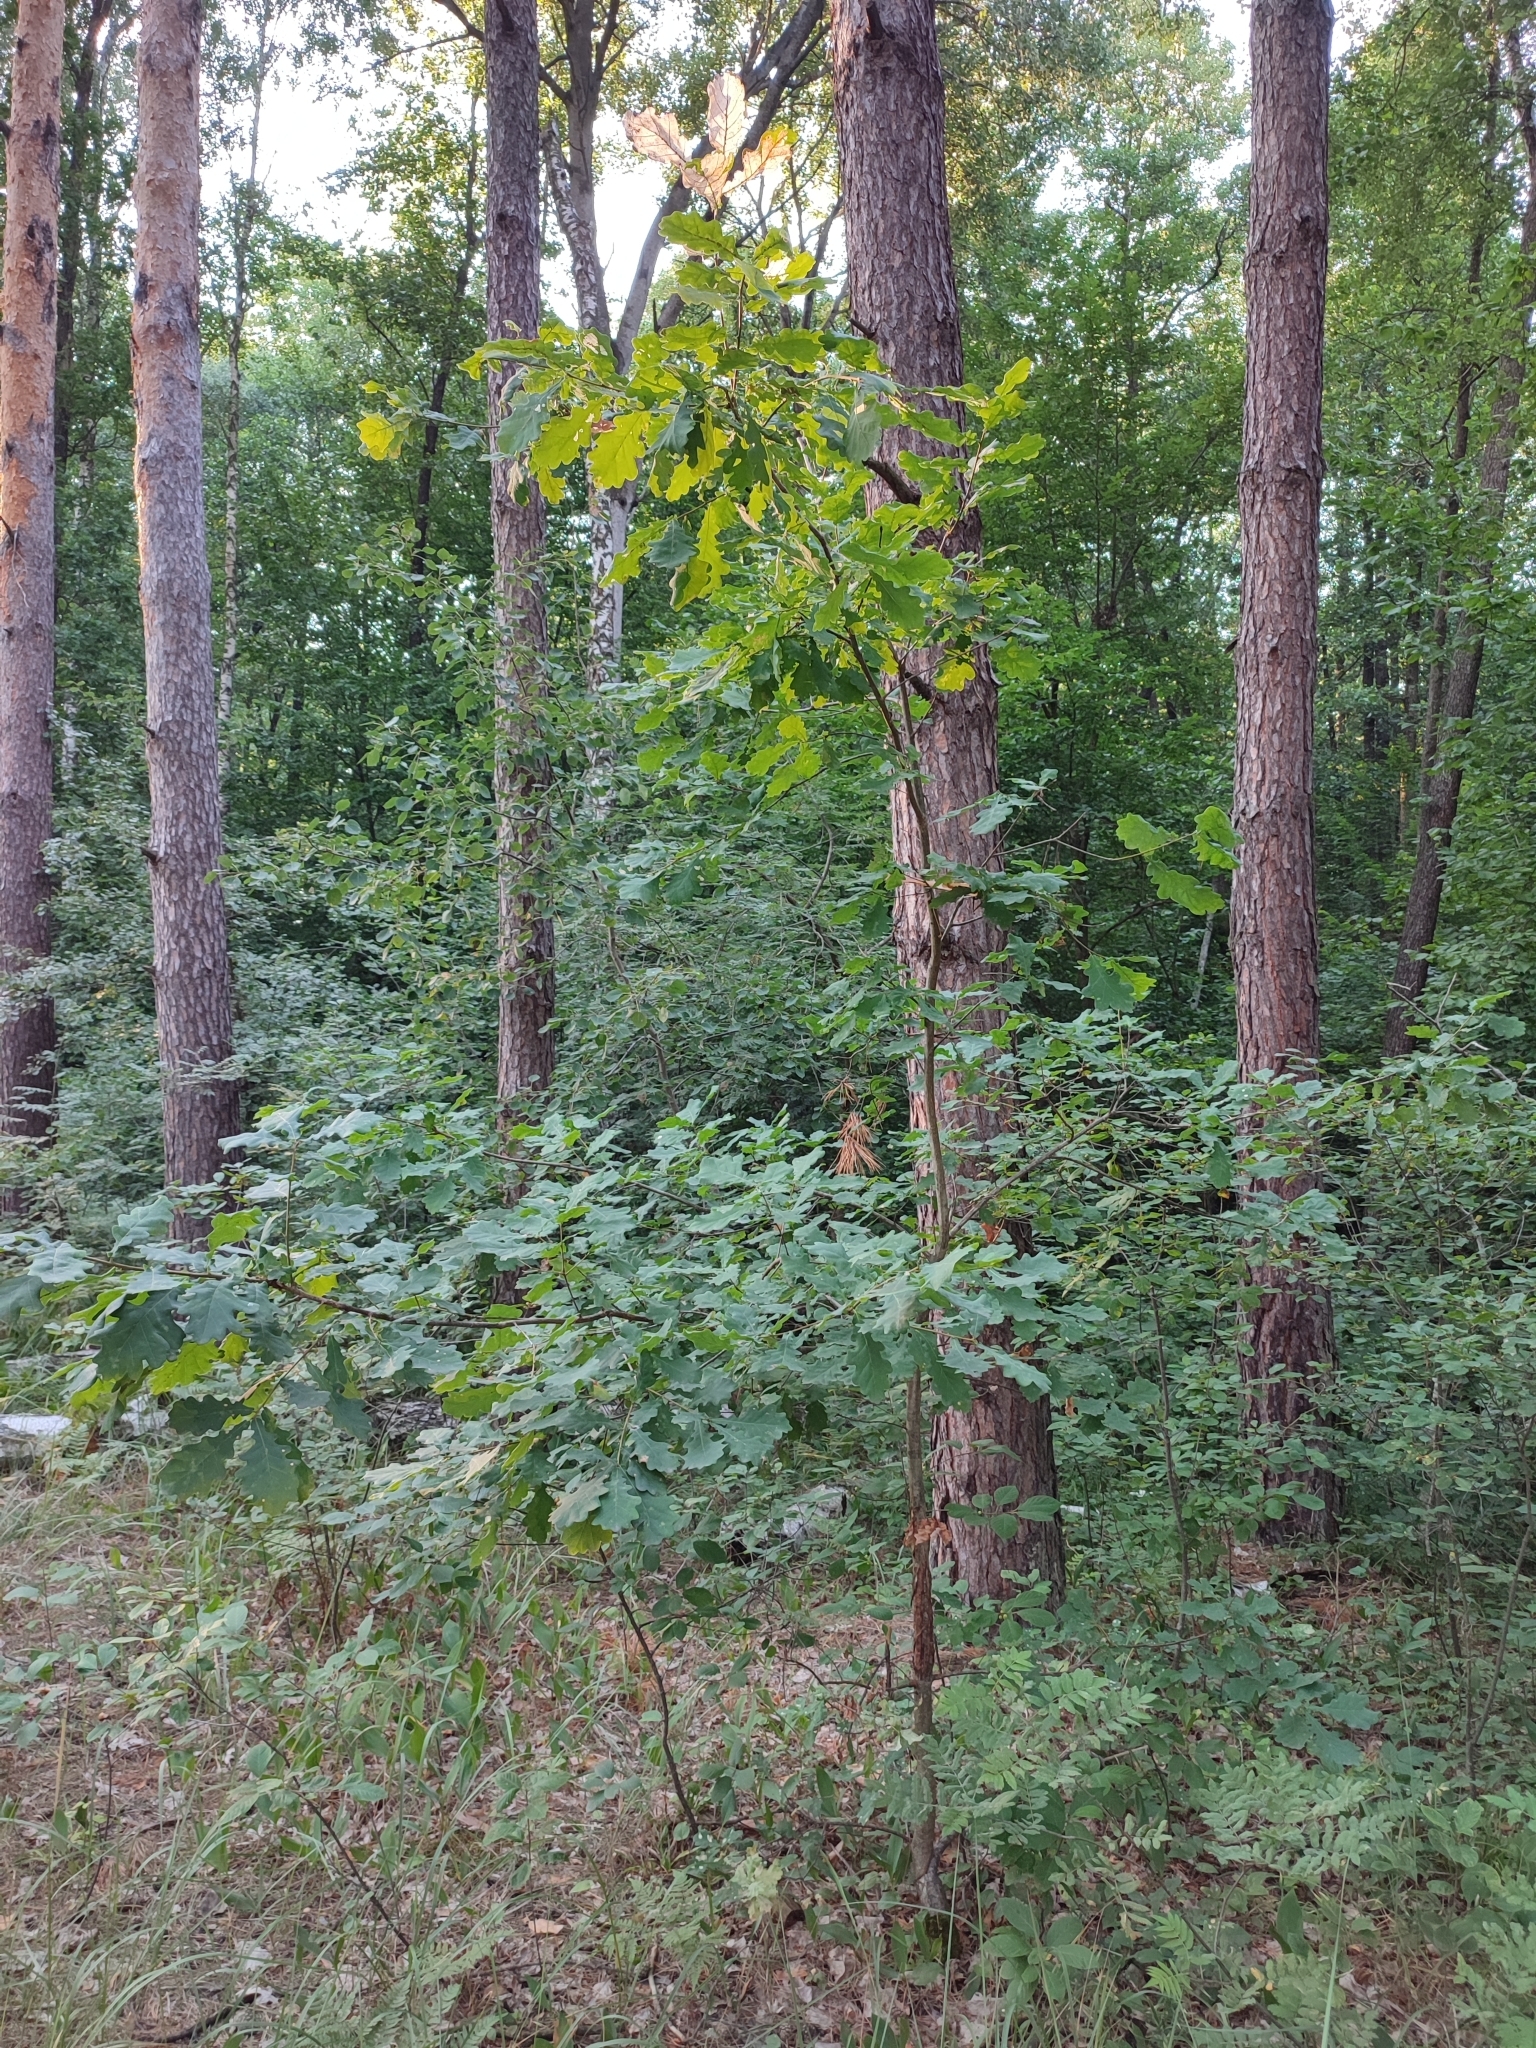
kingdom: Plantae
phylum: Tracheophyta
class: Magnoliopsida
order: Fagales
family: Fagaceae
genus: Quercus
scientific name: Quercus robur
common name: Pedunculate oak
